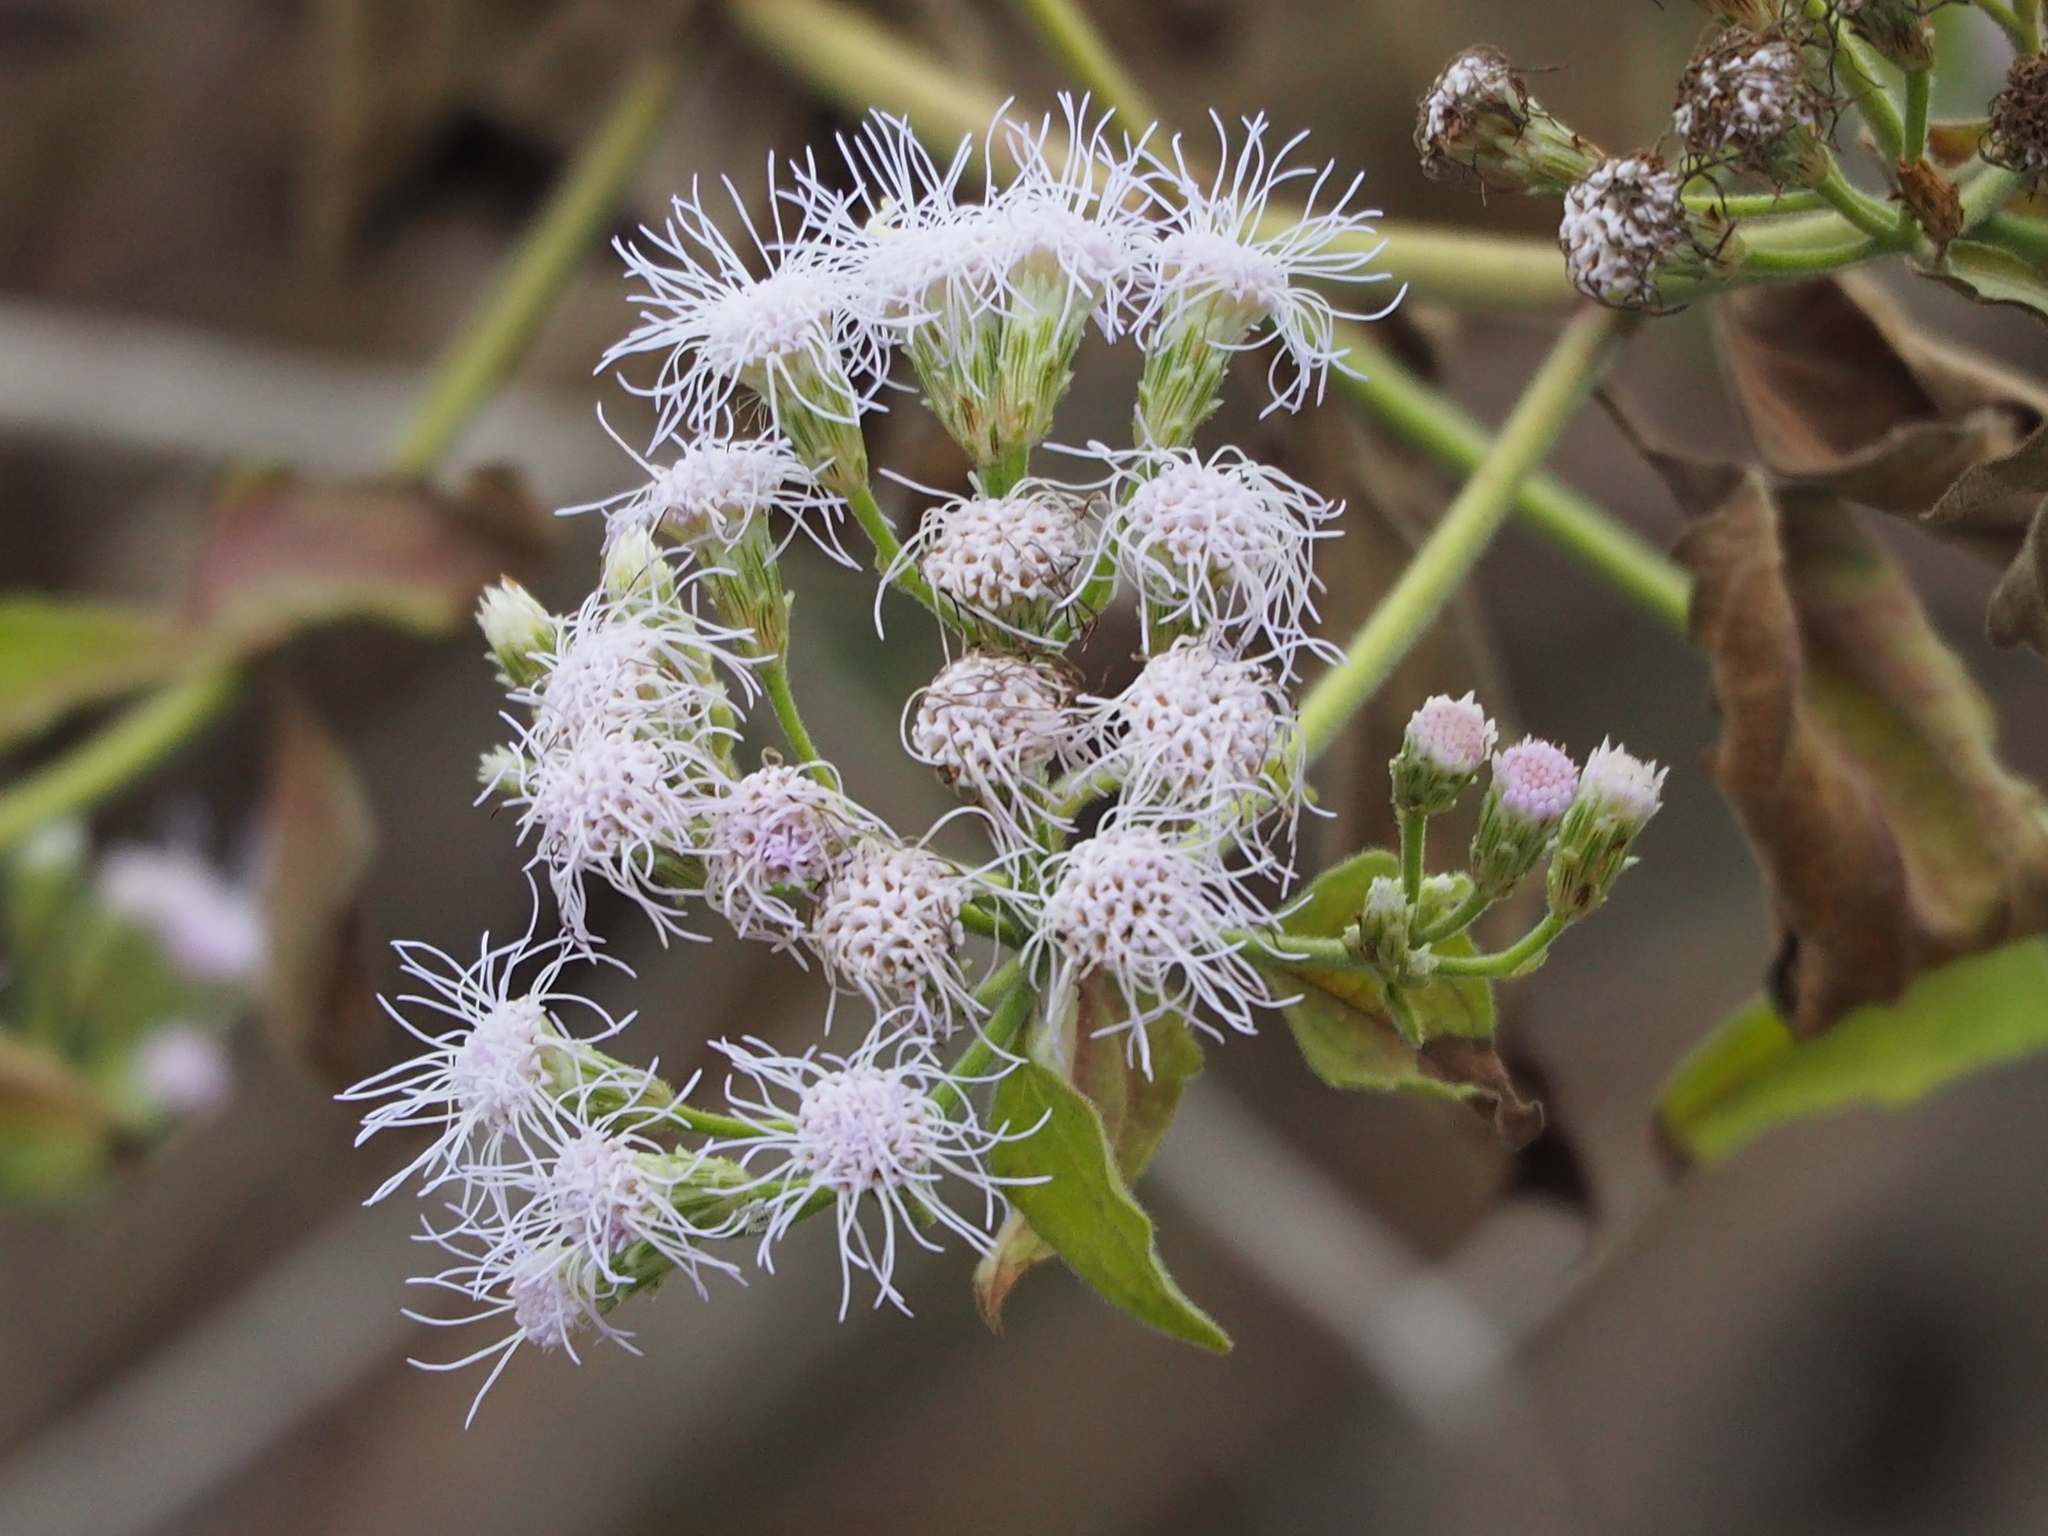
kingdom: Plantae
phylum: Tracheophyta
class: Magnoliopsida
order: Asterales
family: Asteraceae
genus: Chromolaena
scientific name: Chromolaena odorata
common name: Siamweed
